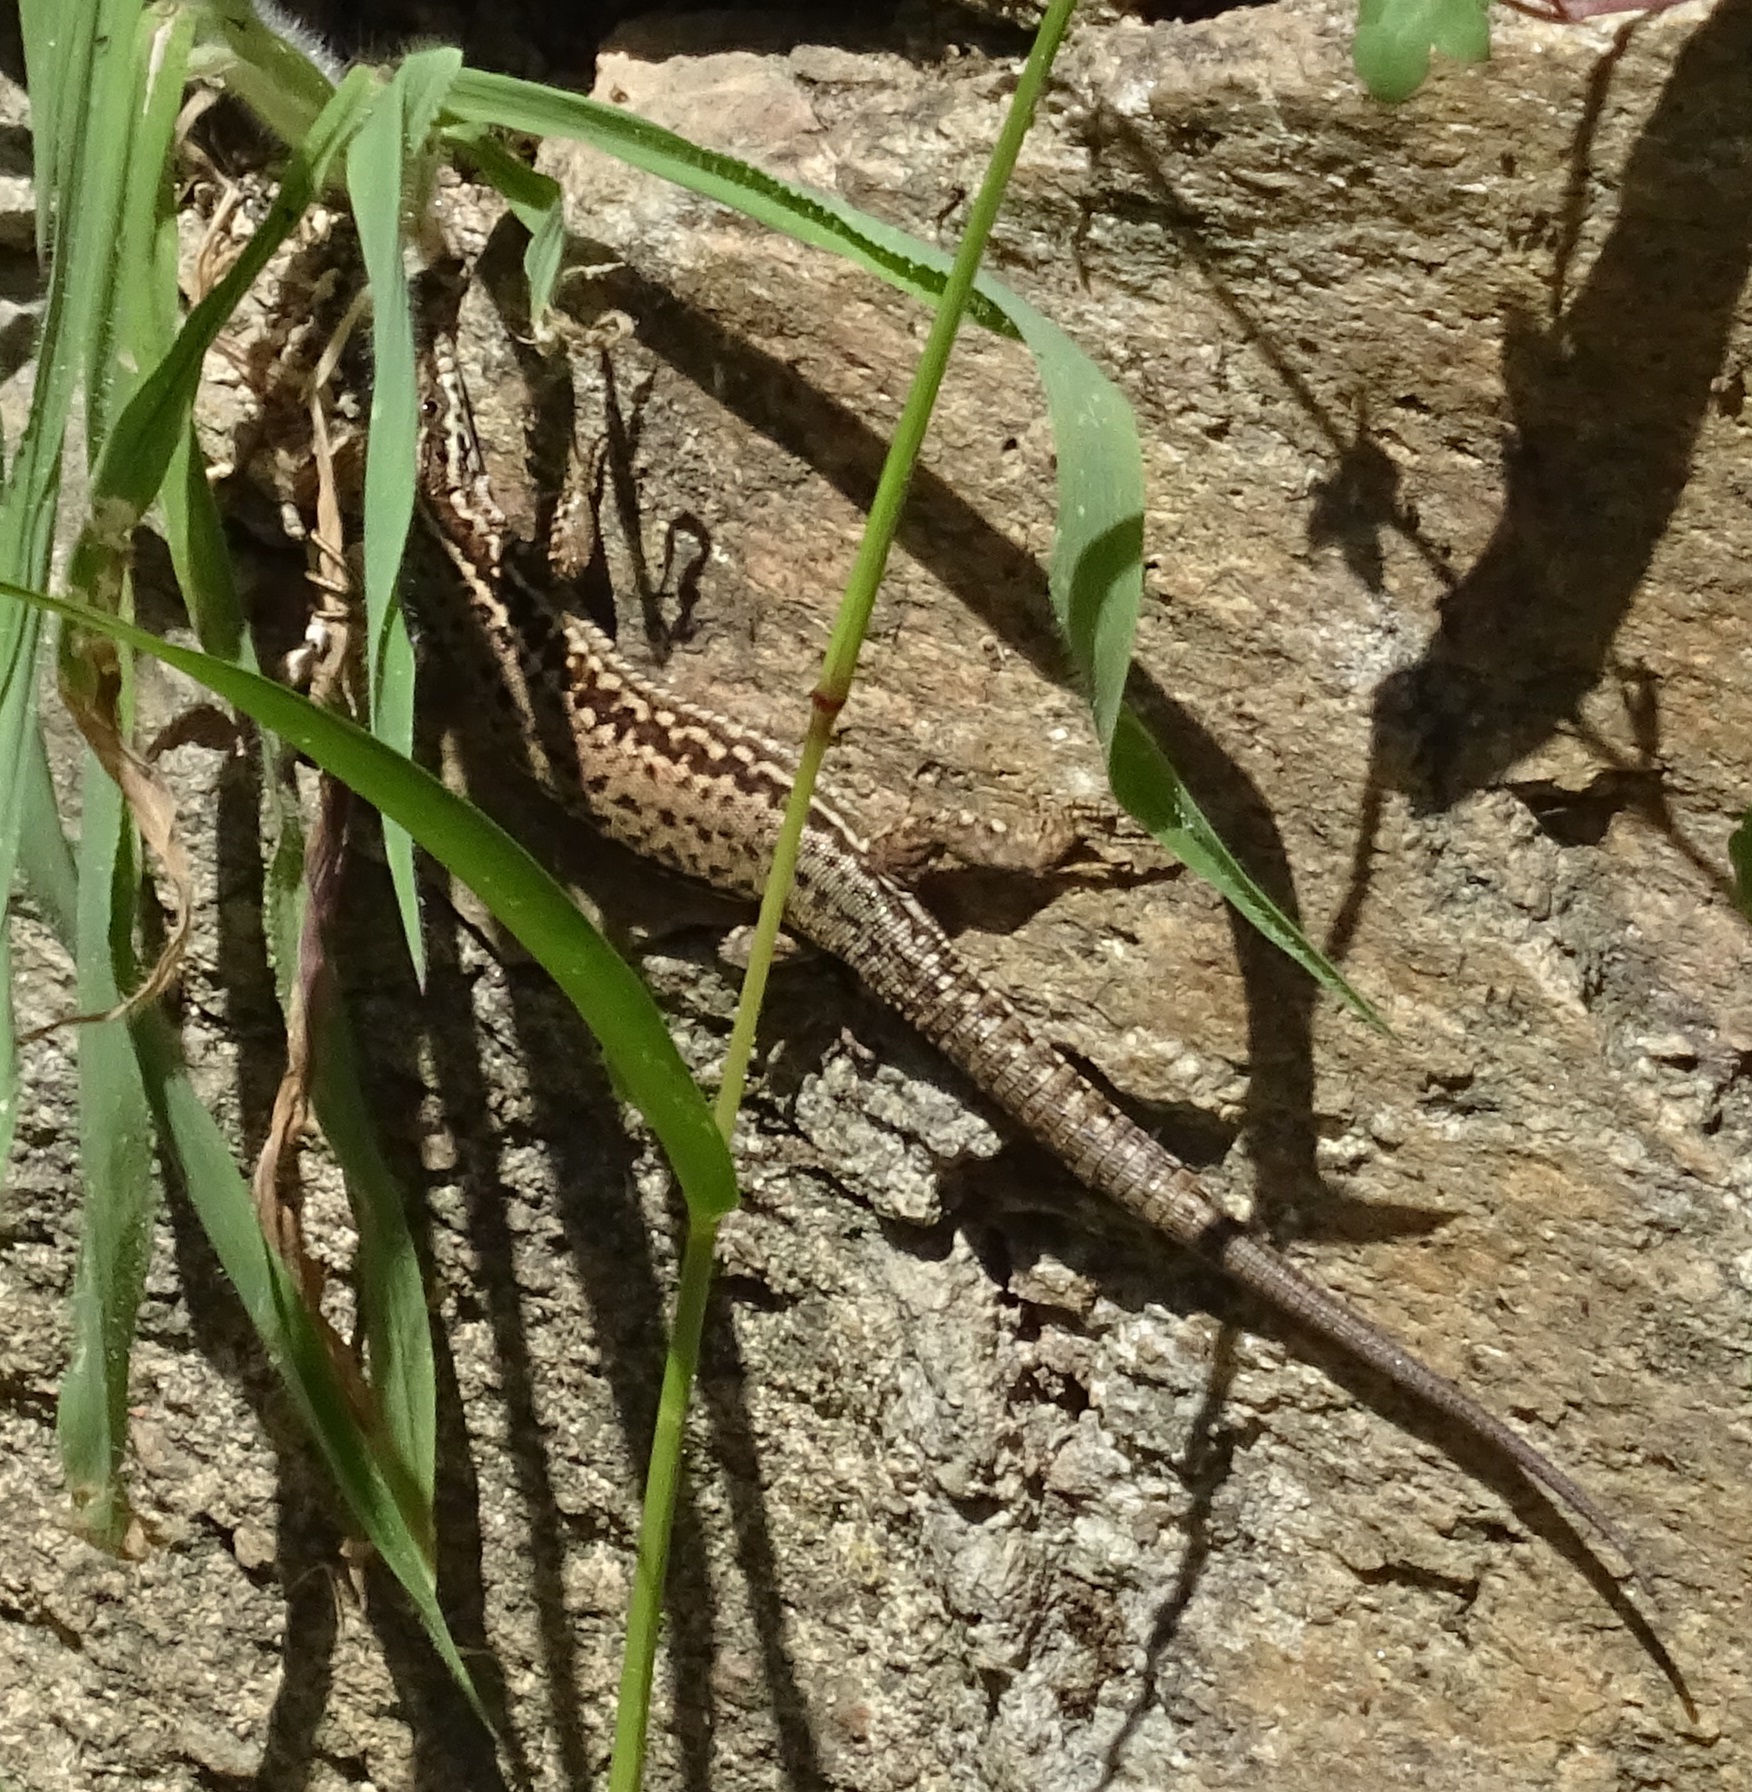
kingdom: Animalia
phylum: Chordata
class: Squamata
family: Lacertidae
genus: Podarcis
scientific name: Podarcis muralis
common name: Common wall lizard
